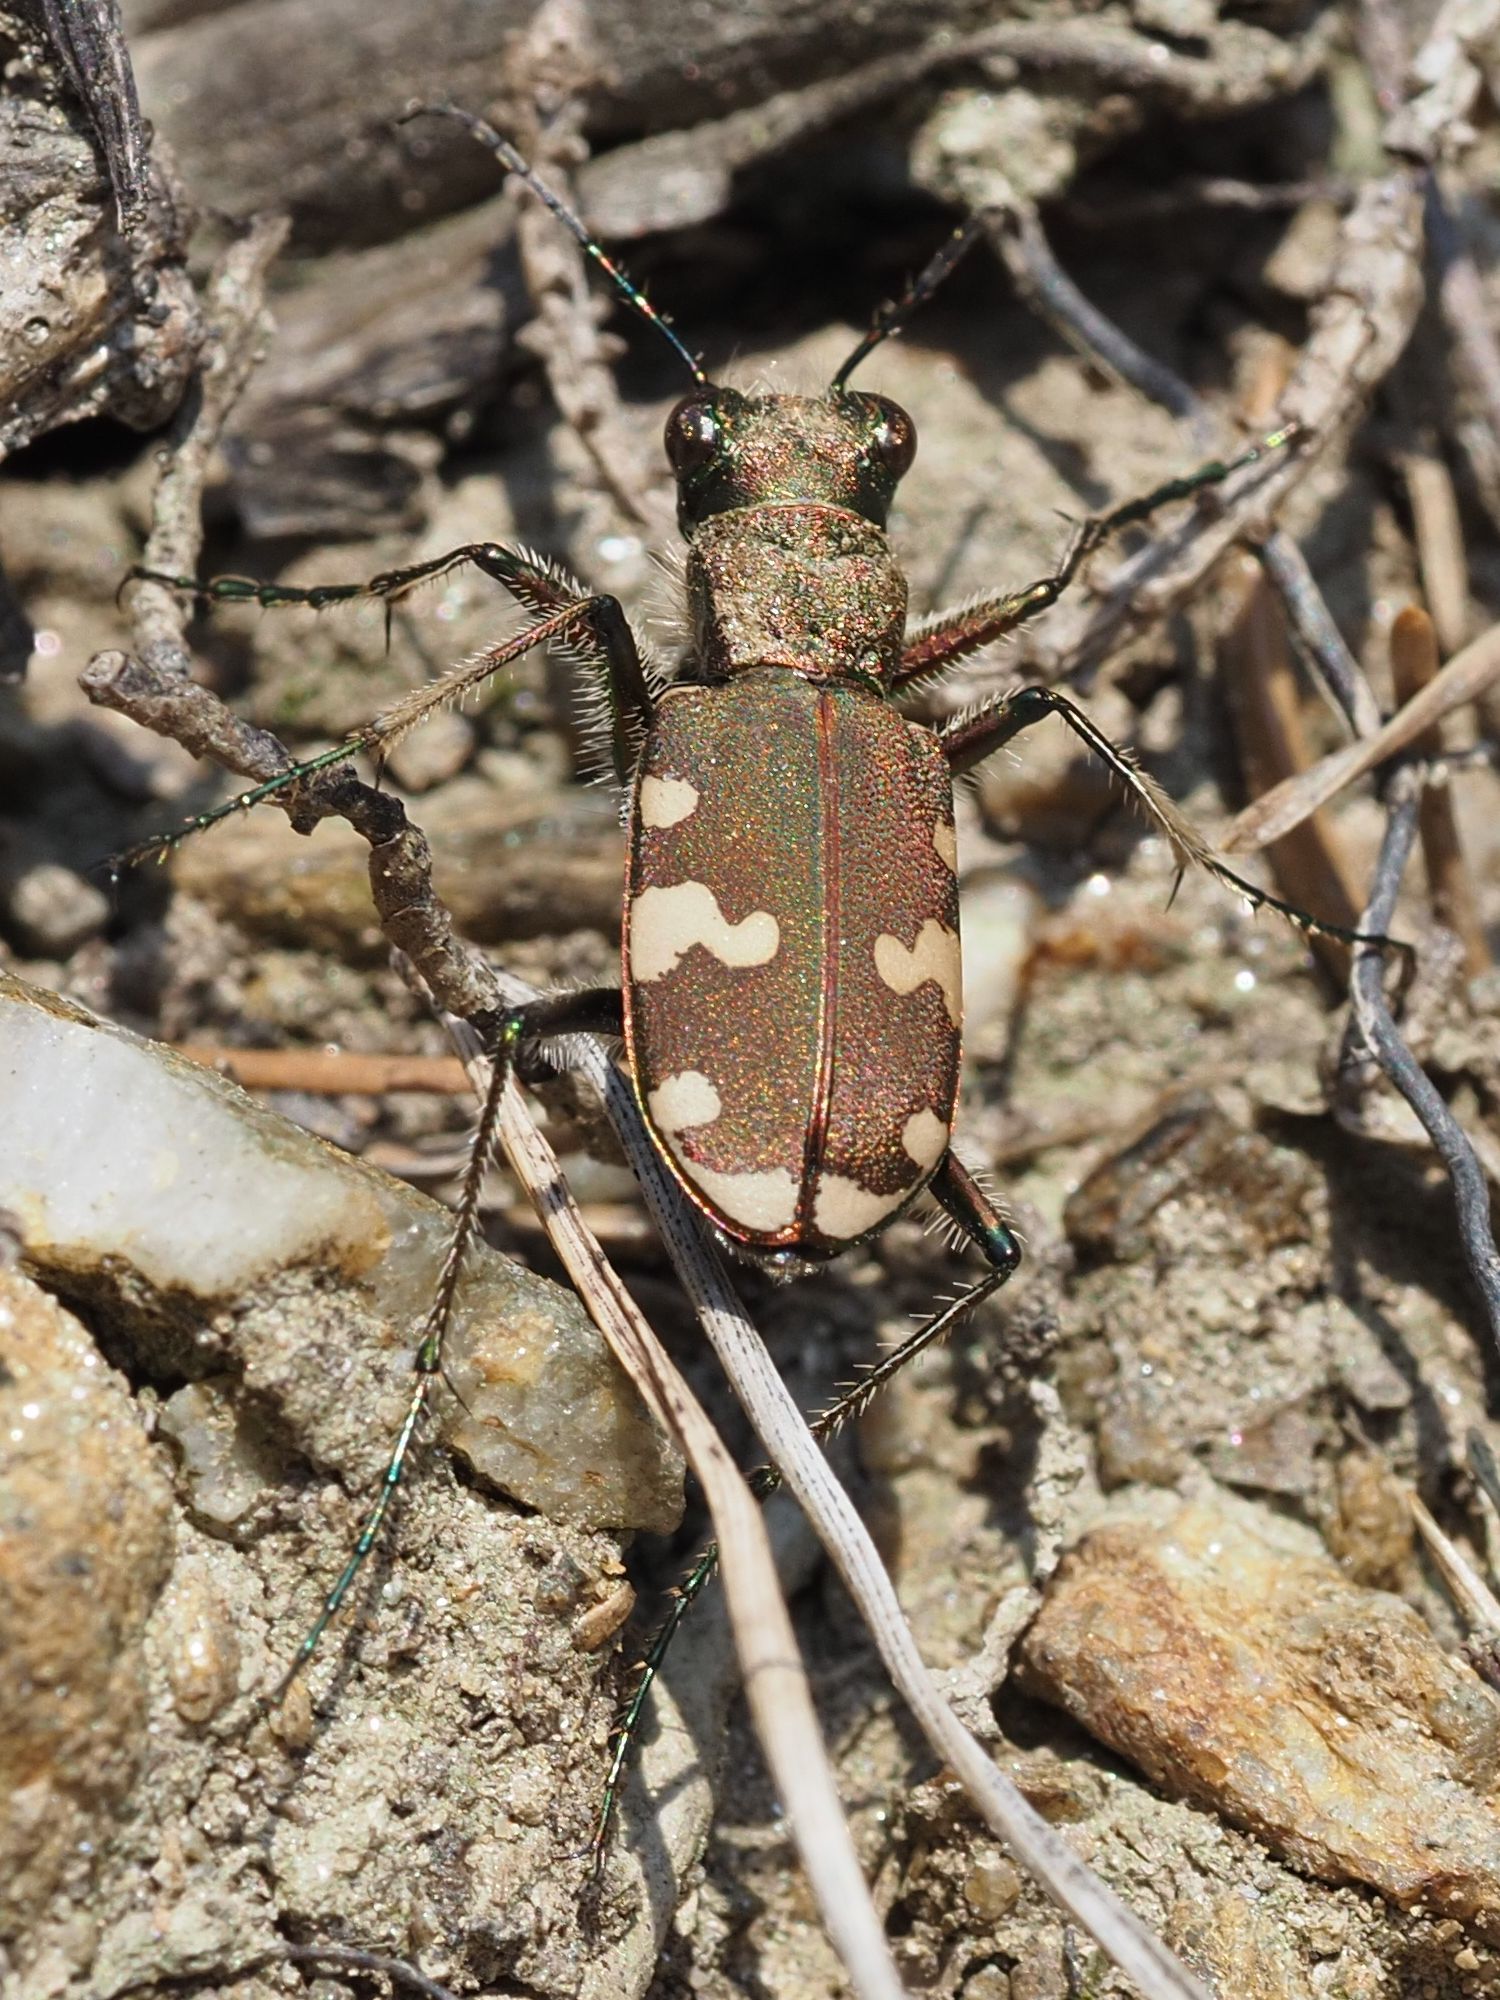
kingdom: Animalia
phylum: Arthropoda
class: Insecta
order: Coleoptera
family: Carabidae
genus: Cicindela
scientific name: Cicindela sylvicola
